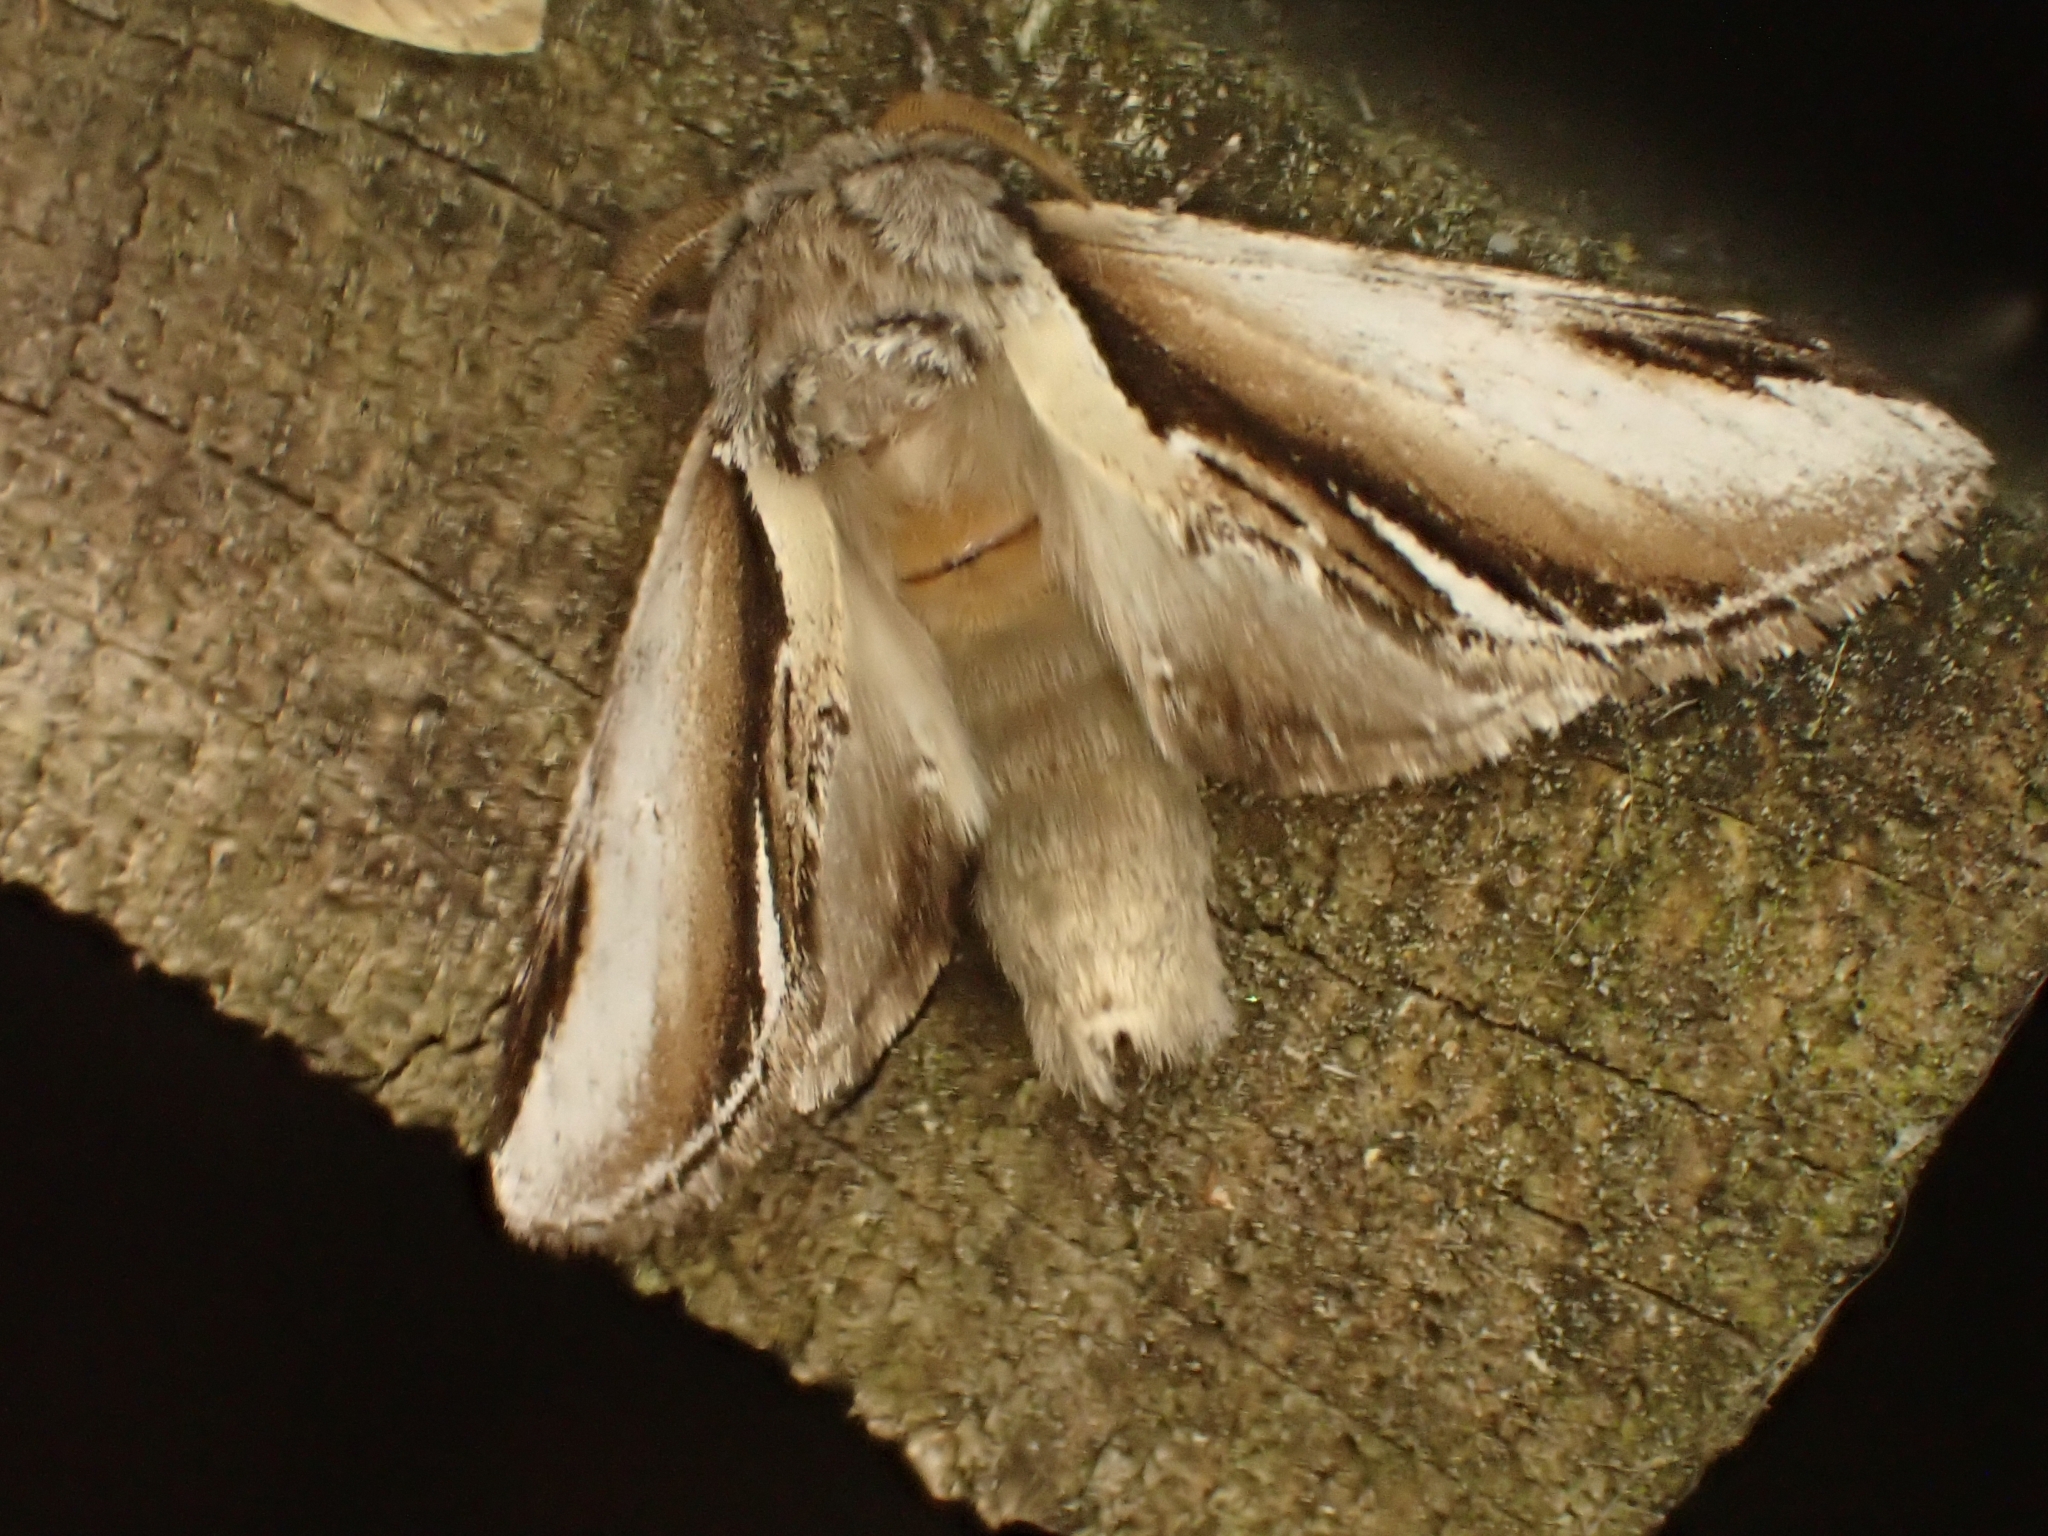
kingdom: Animalia
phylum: Arthropoda
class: Insecta
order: Lepidoptera
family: Notodontidae
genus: Pheosia
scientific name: Pheosia gnoma
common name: Lesser swallow prominent
